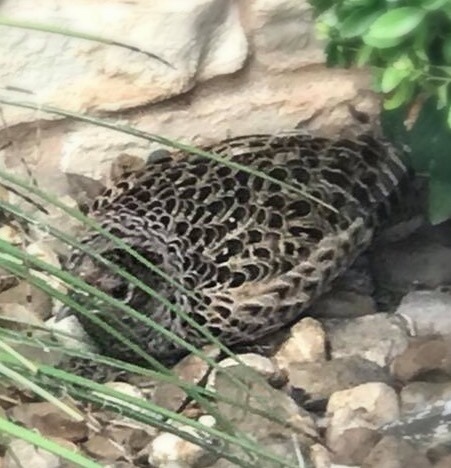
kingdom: Animalia
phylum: Chordata
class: Aves
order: Galliformes
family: Phasianidae
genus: Phasianus
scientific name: Phasianus colchicus
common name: Common pheasant
